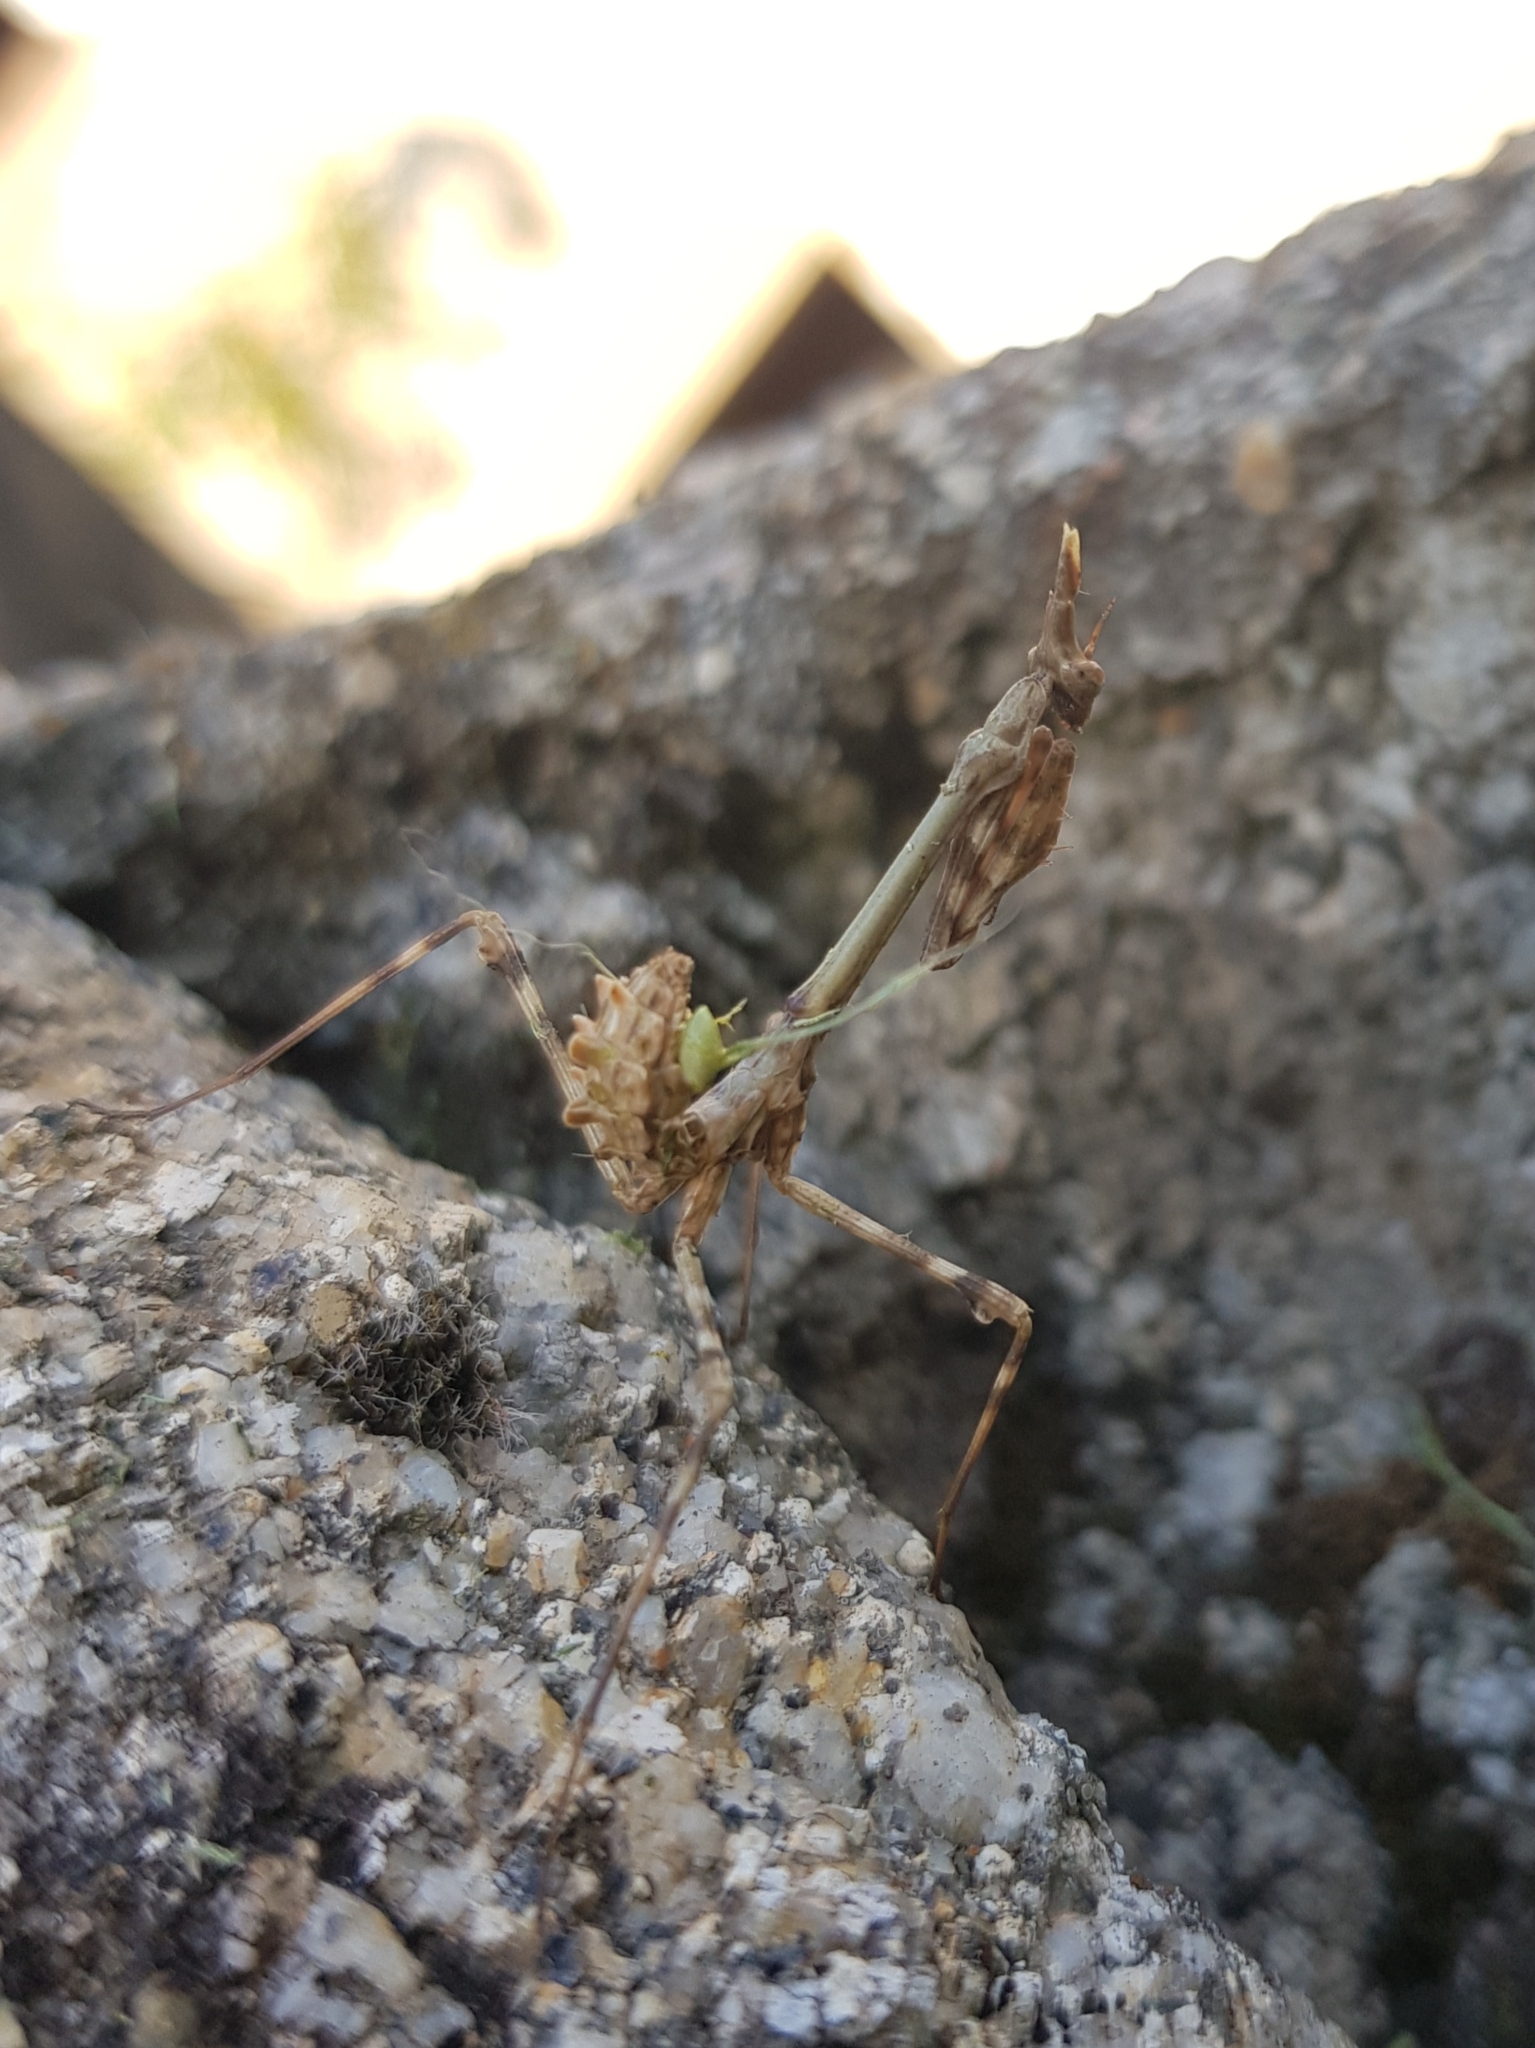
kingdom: Animalia
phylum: Arthropoda
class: Insecta
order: Mantodea
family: Empusidae
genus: Empusa
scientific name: Empusa pennata
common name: Conehead mantis
